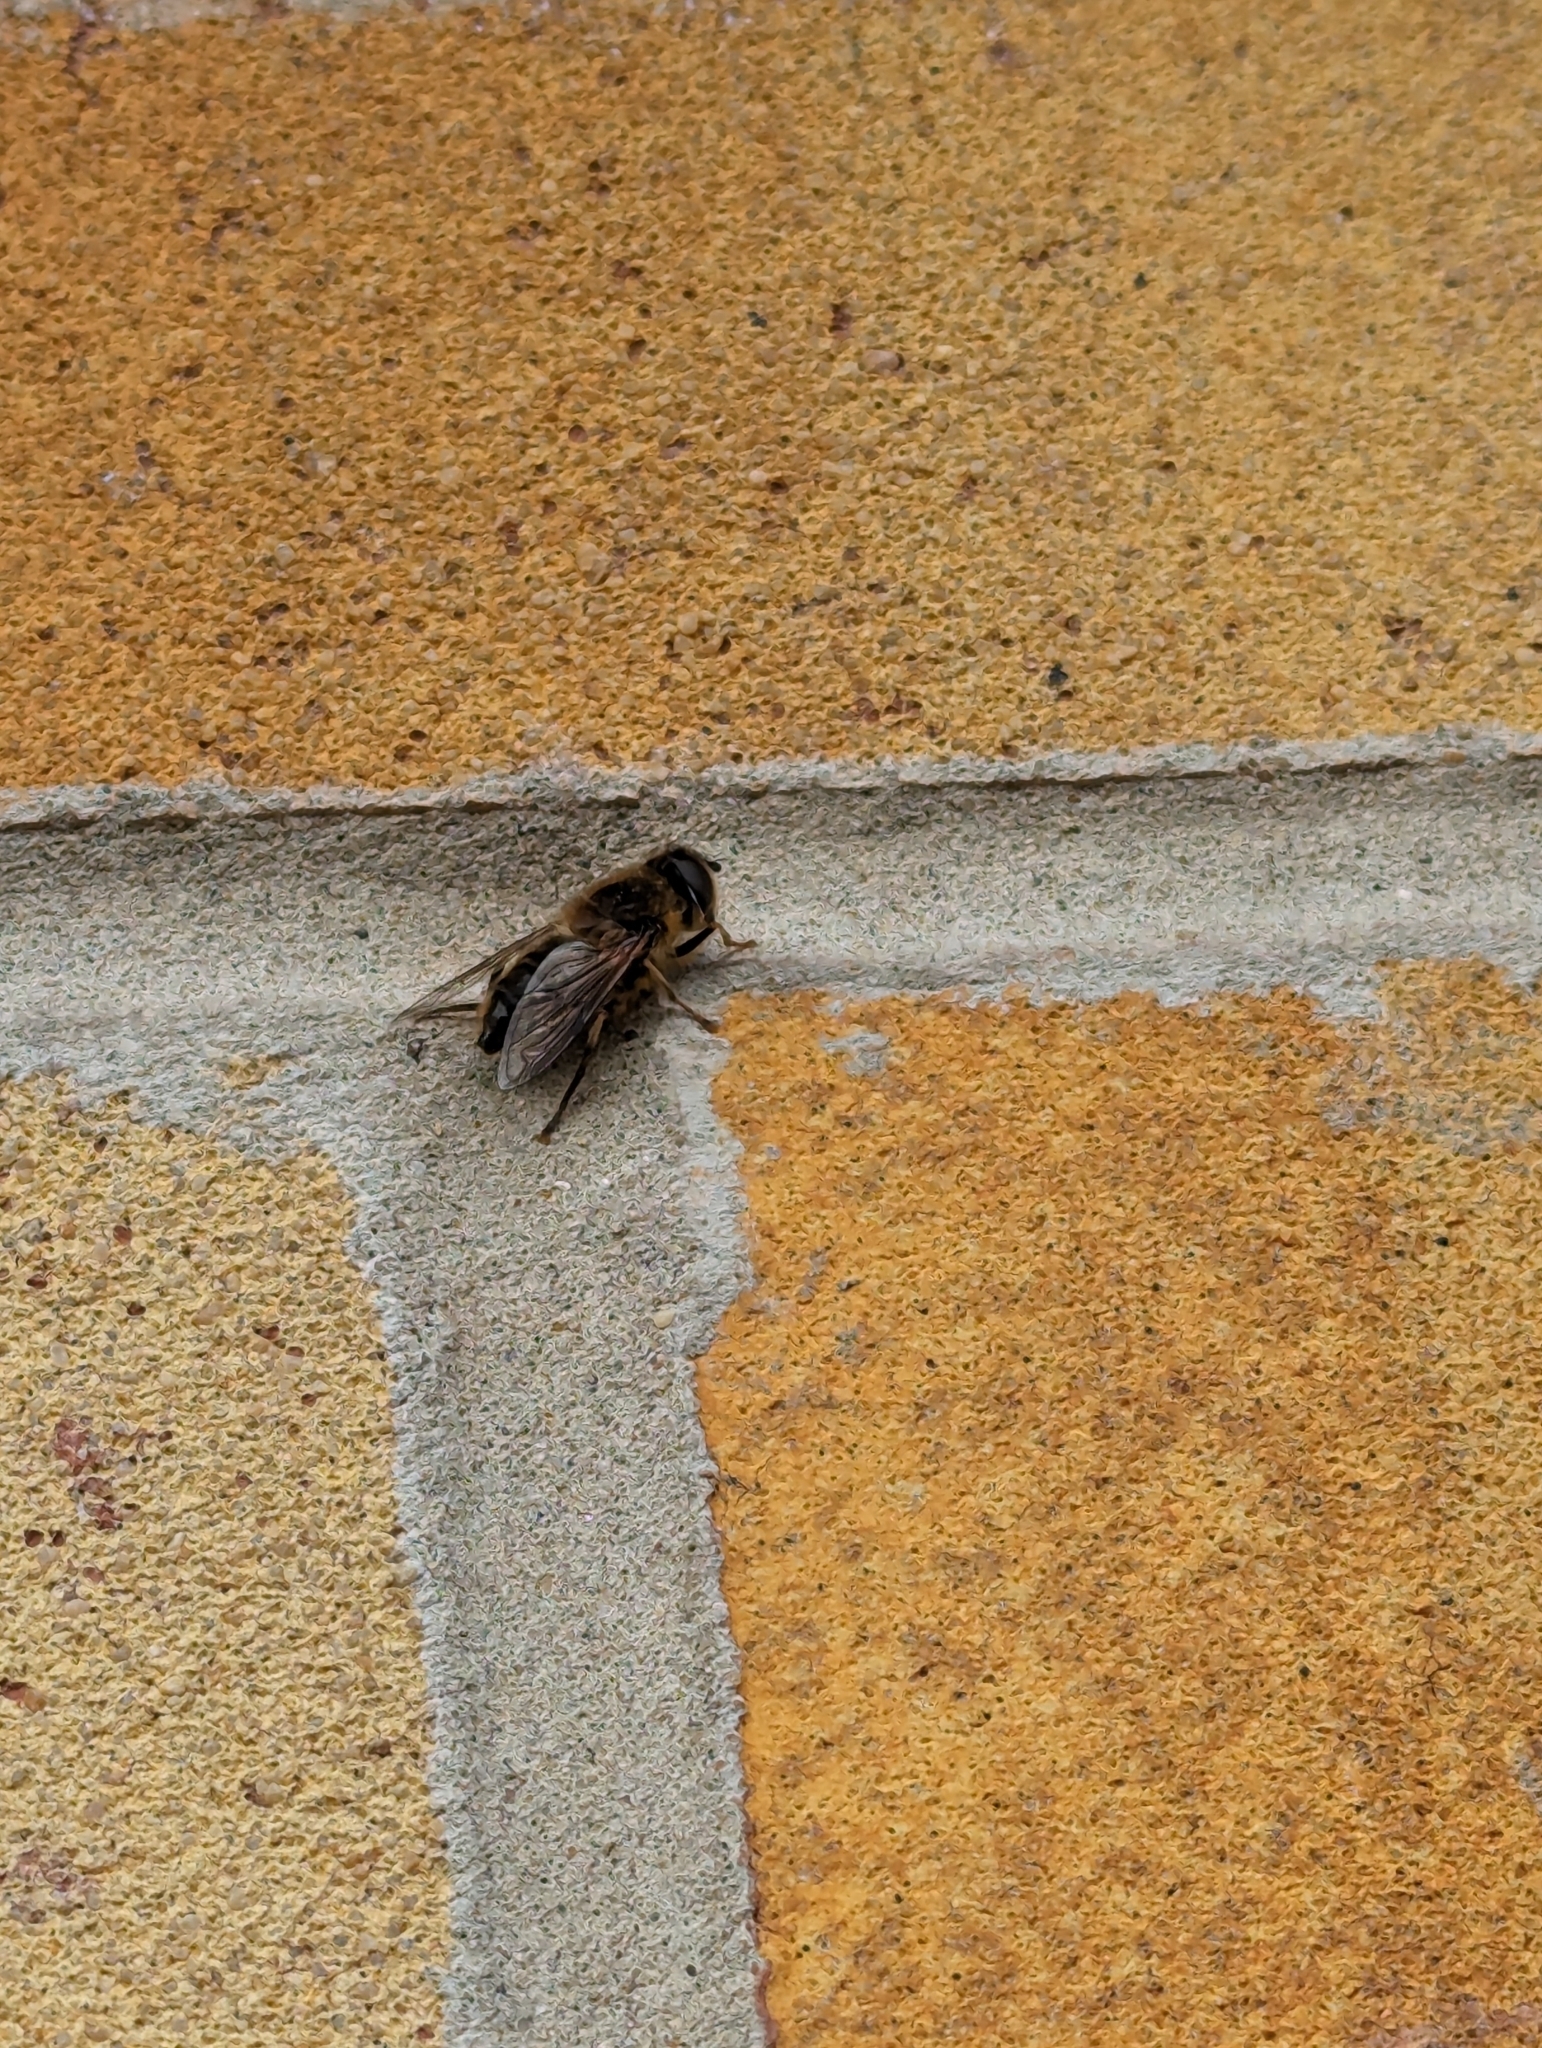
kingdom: Animalia
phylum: Arthropoda
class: Insecta
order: Diptera
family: Syrphidae
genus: Eristalis
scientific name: Eristalis pertinax
